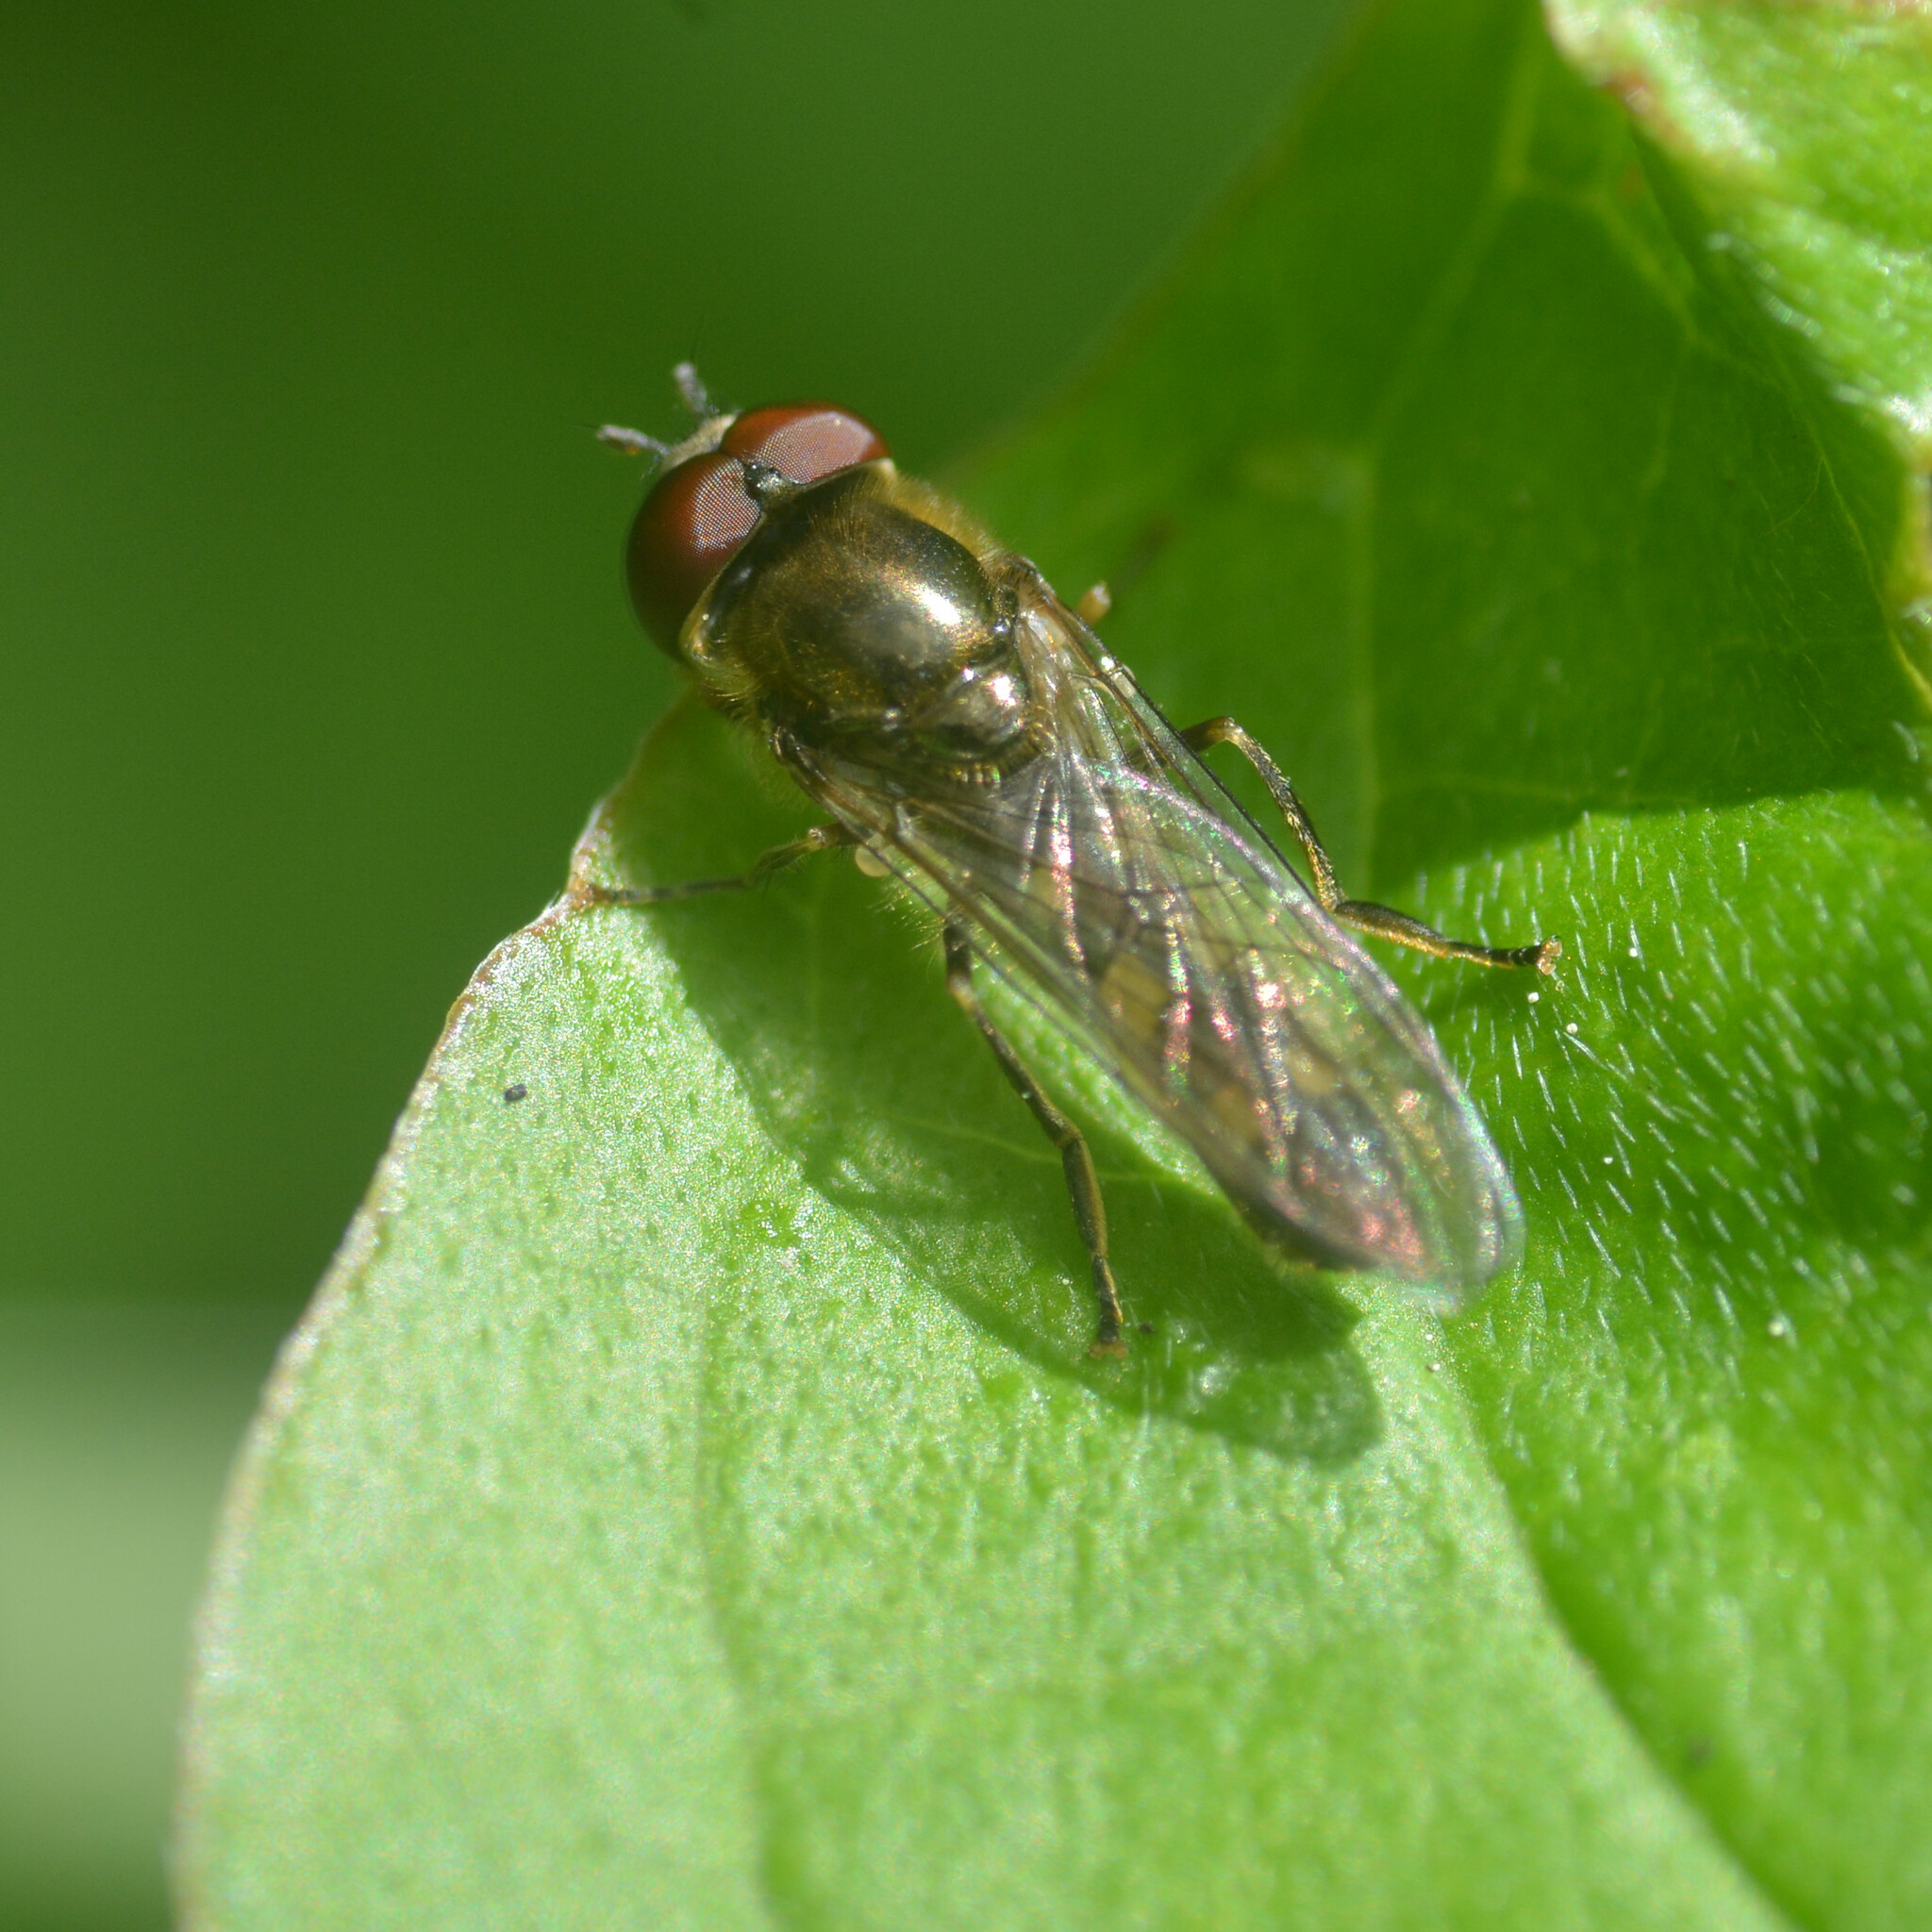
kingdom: Animalia
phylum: Arthropoda
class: Insecta
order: Diptera
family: Syrphidae
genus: Platycheirus
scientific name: Platycheirus scutatus
